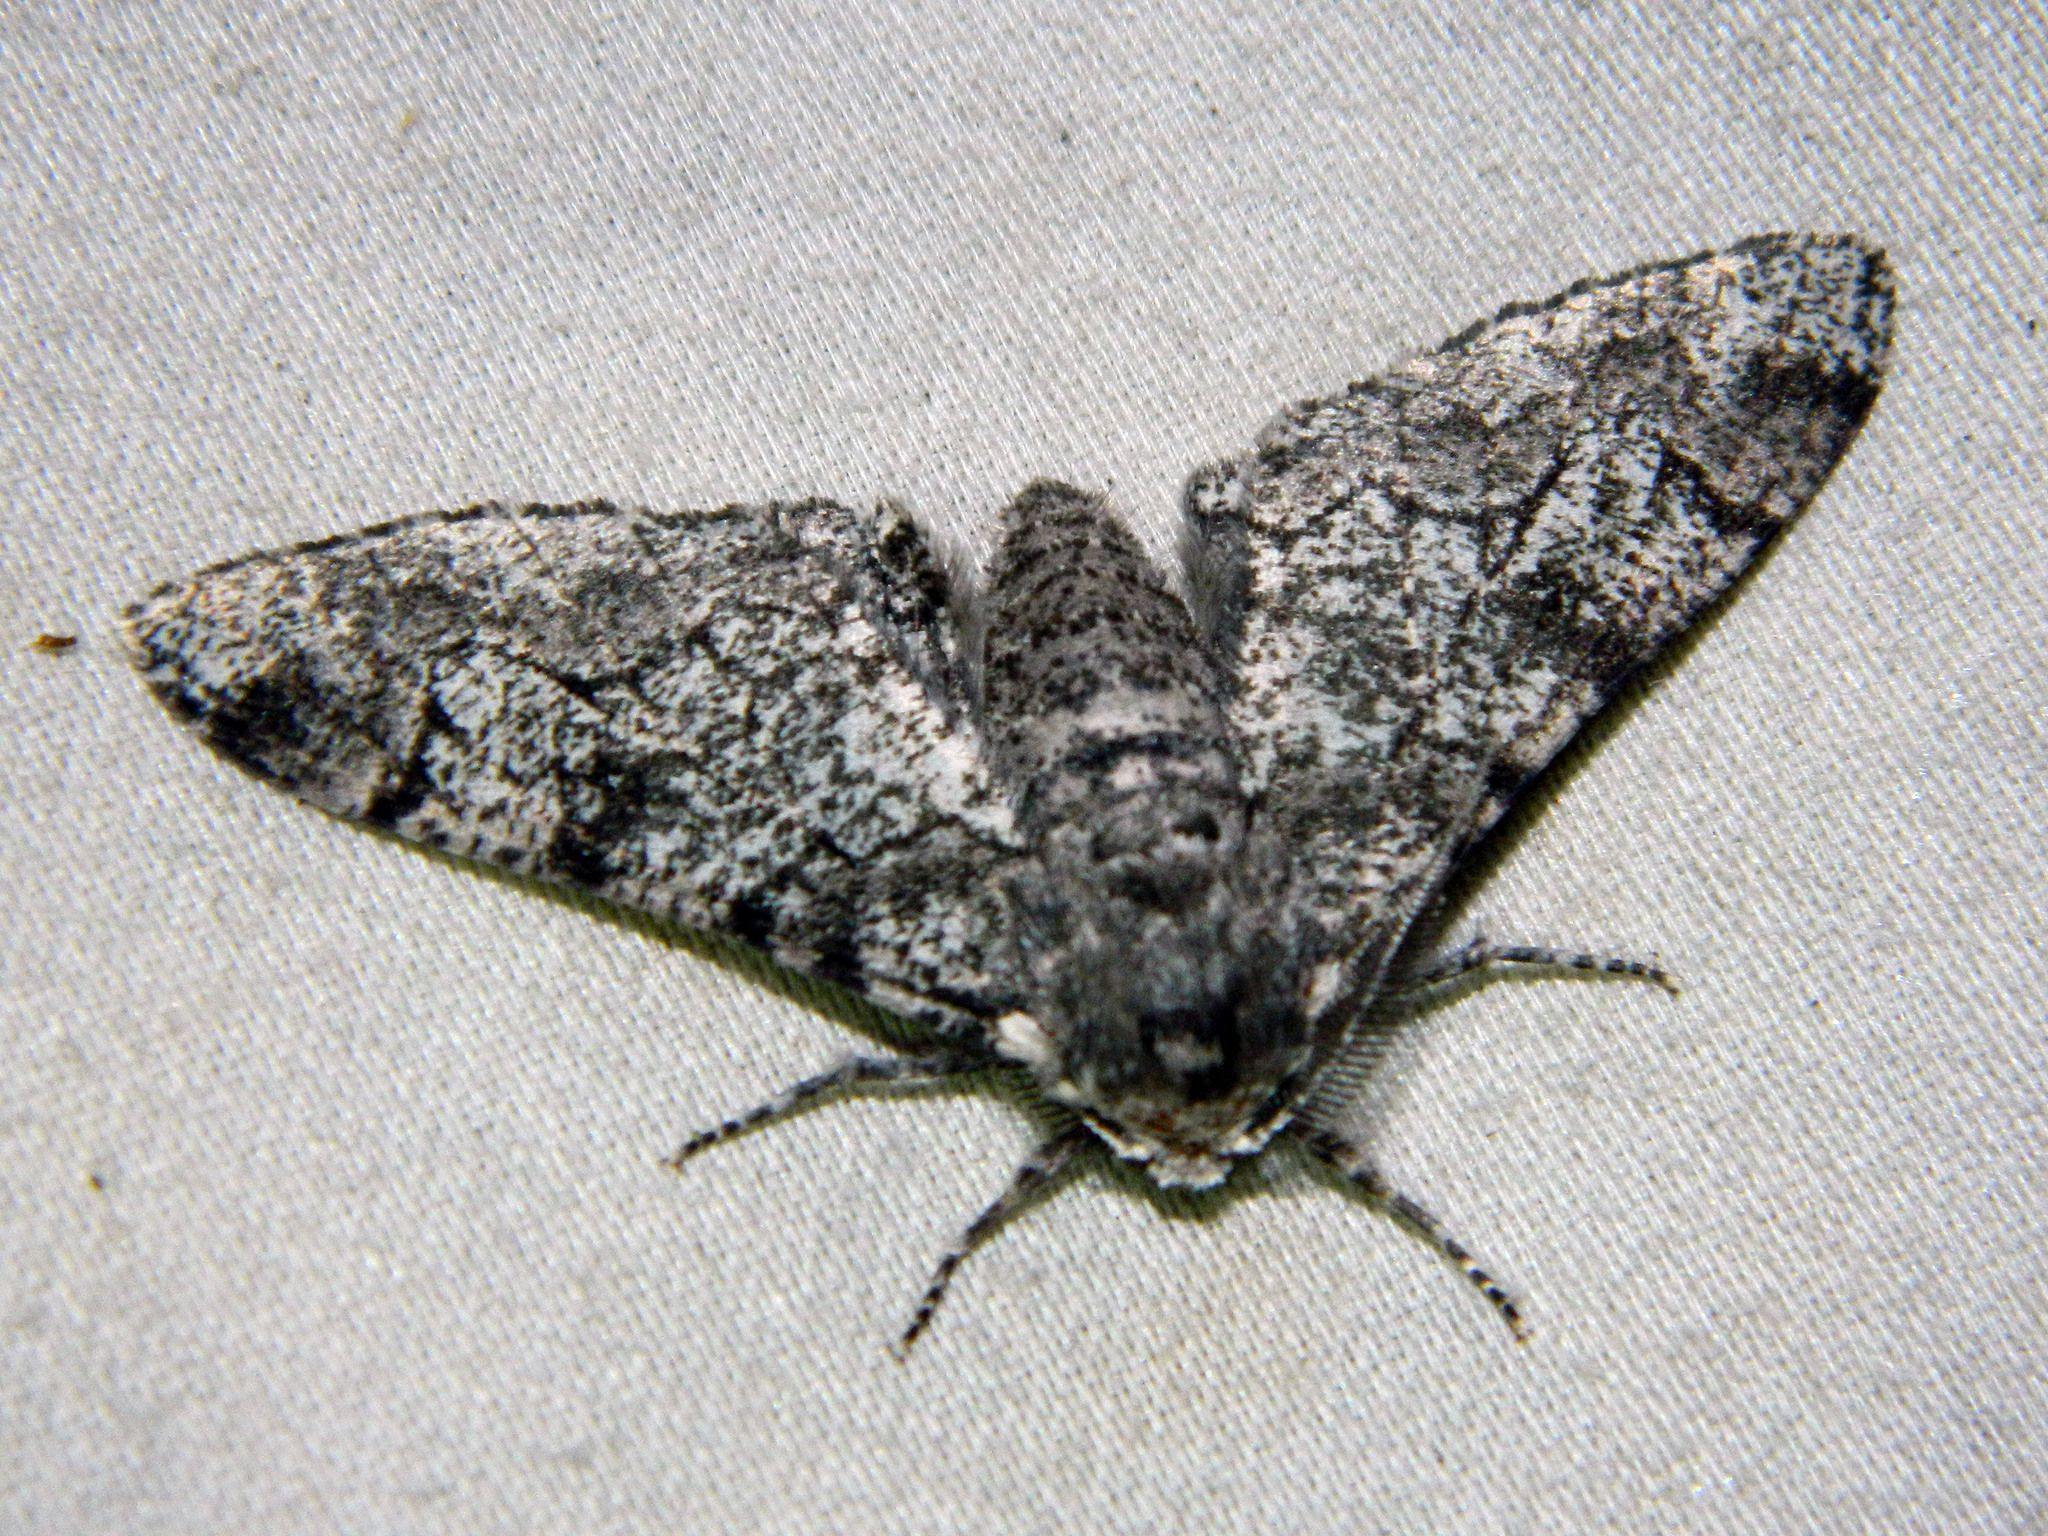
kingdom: Animalia
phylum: Arthropoda
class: Insecta
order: Lepidoptera
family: Geometridae
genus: Biston
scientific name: Biston betularia
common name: Peppered moth
